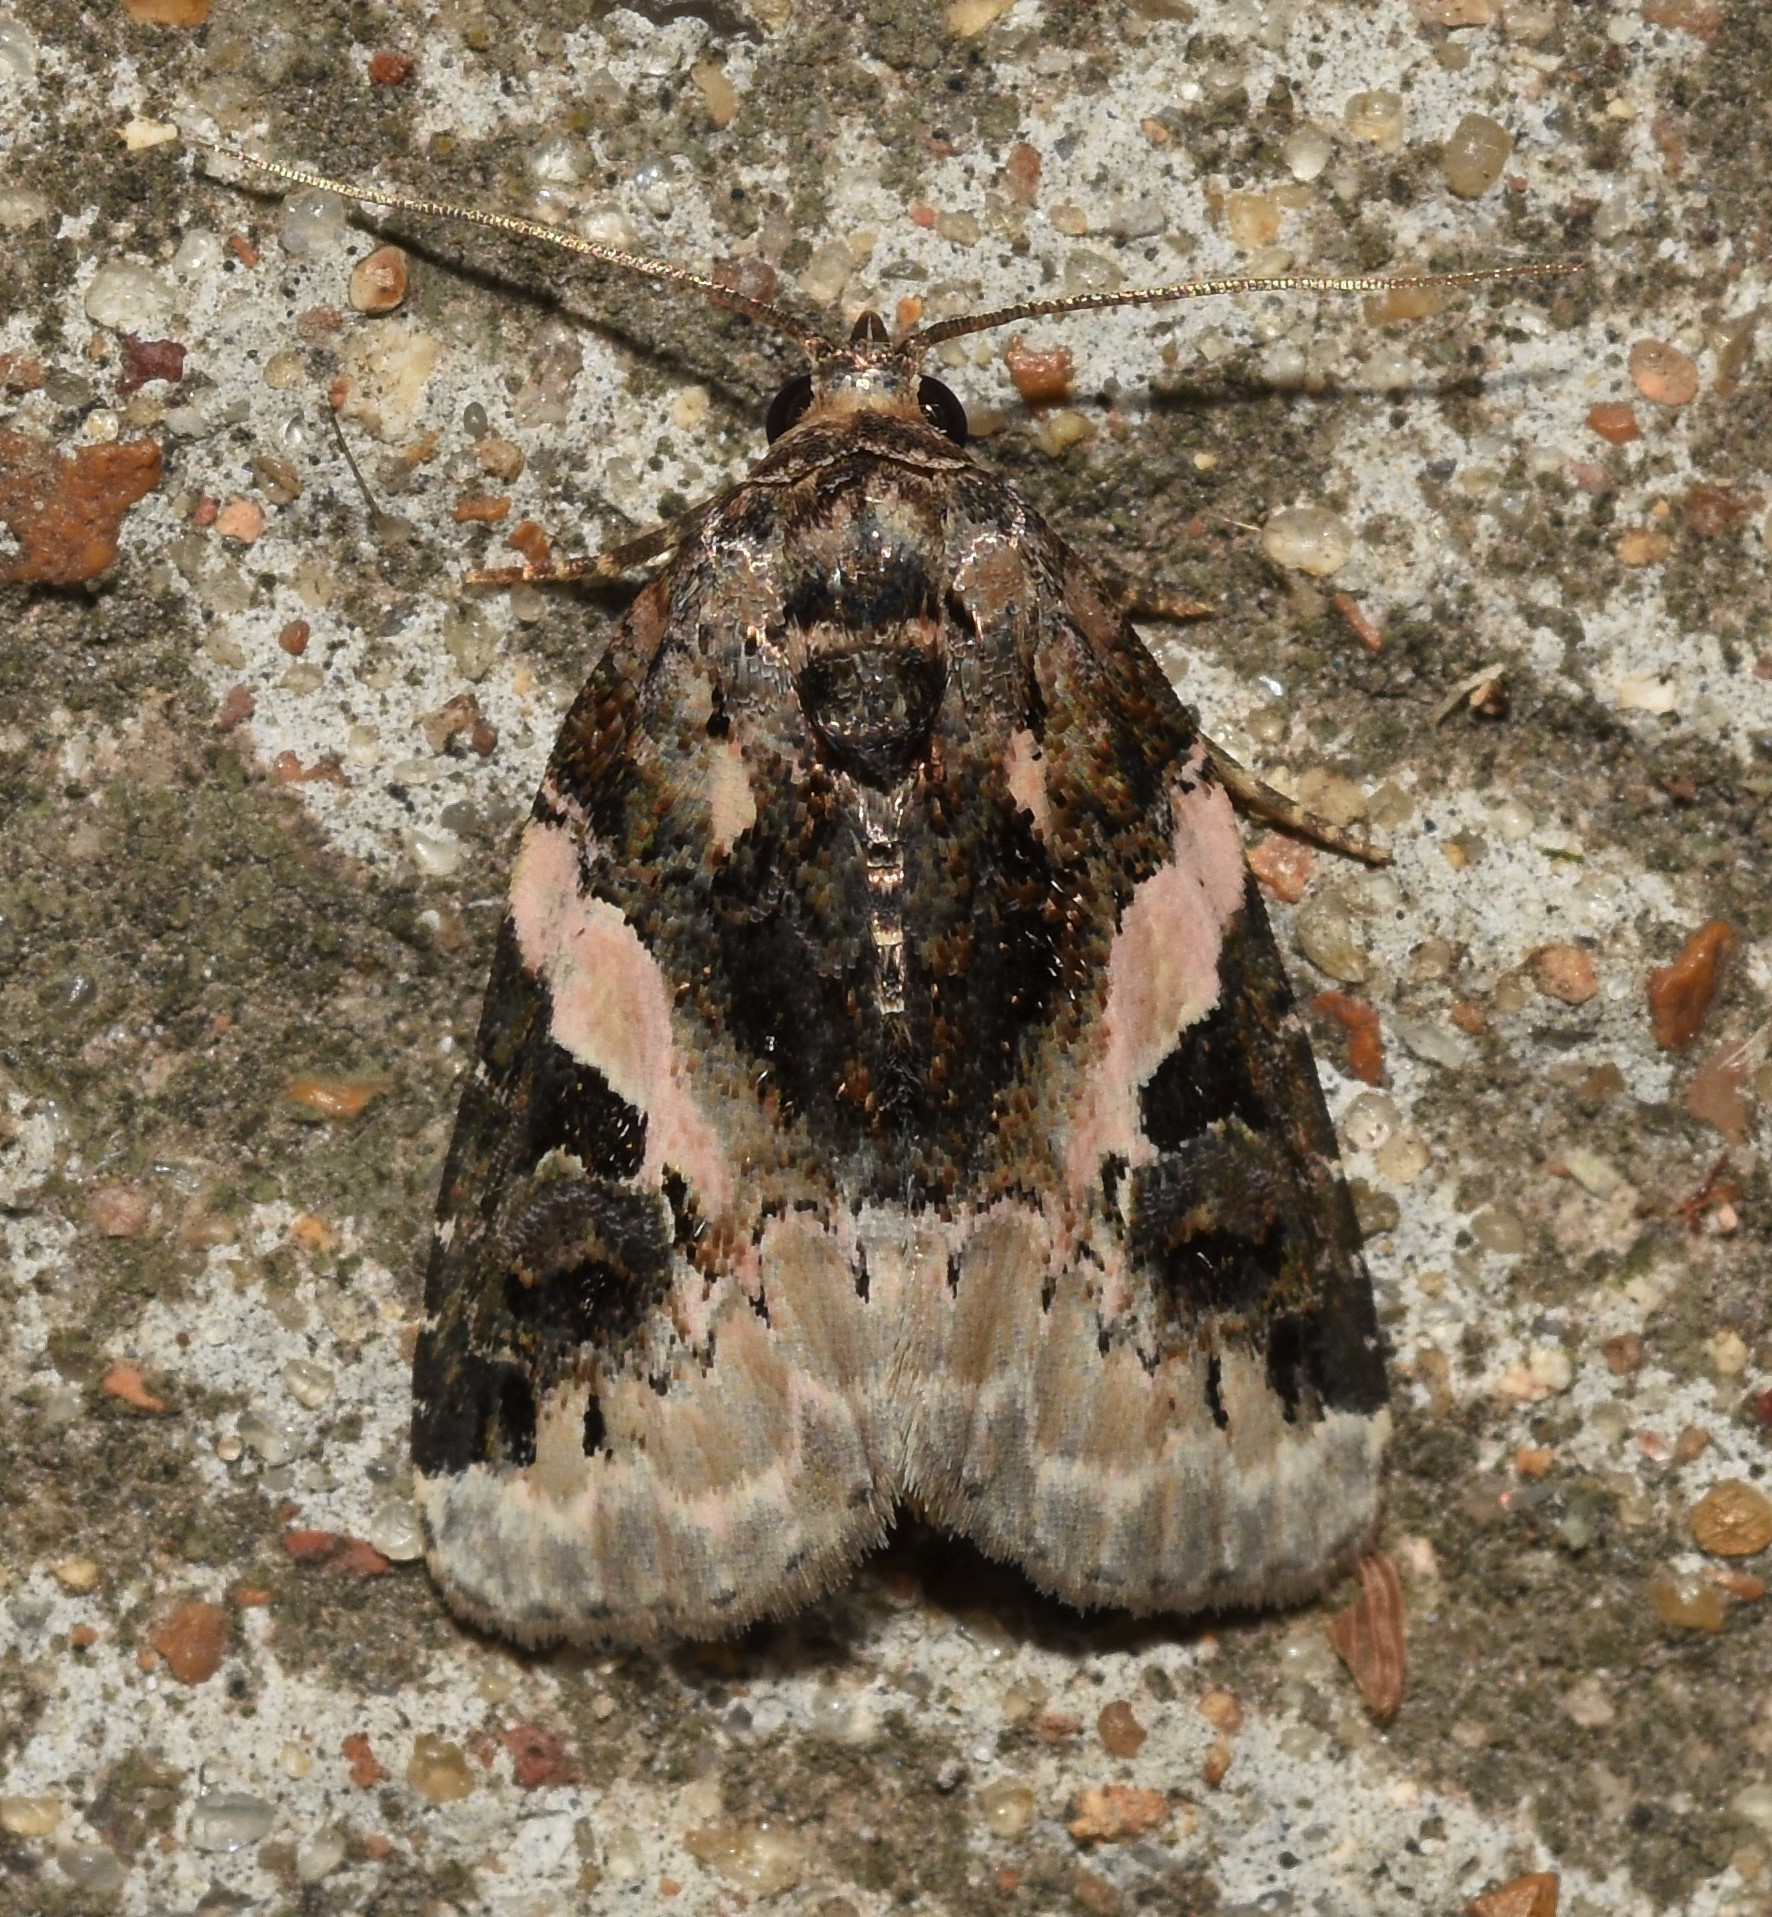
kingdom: Animalia
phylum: Arthropoda
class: Insecta
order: Lepidoptera
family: Noctuidae
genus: Pseudeustrotia
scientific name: Pseudeustrotia carneola
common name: Pink-barred lithacodia moth
